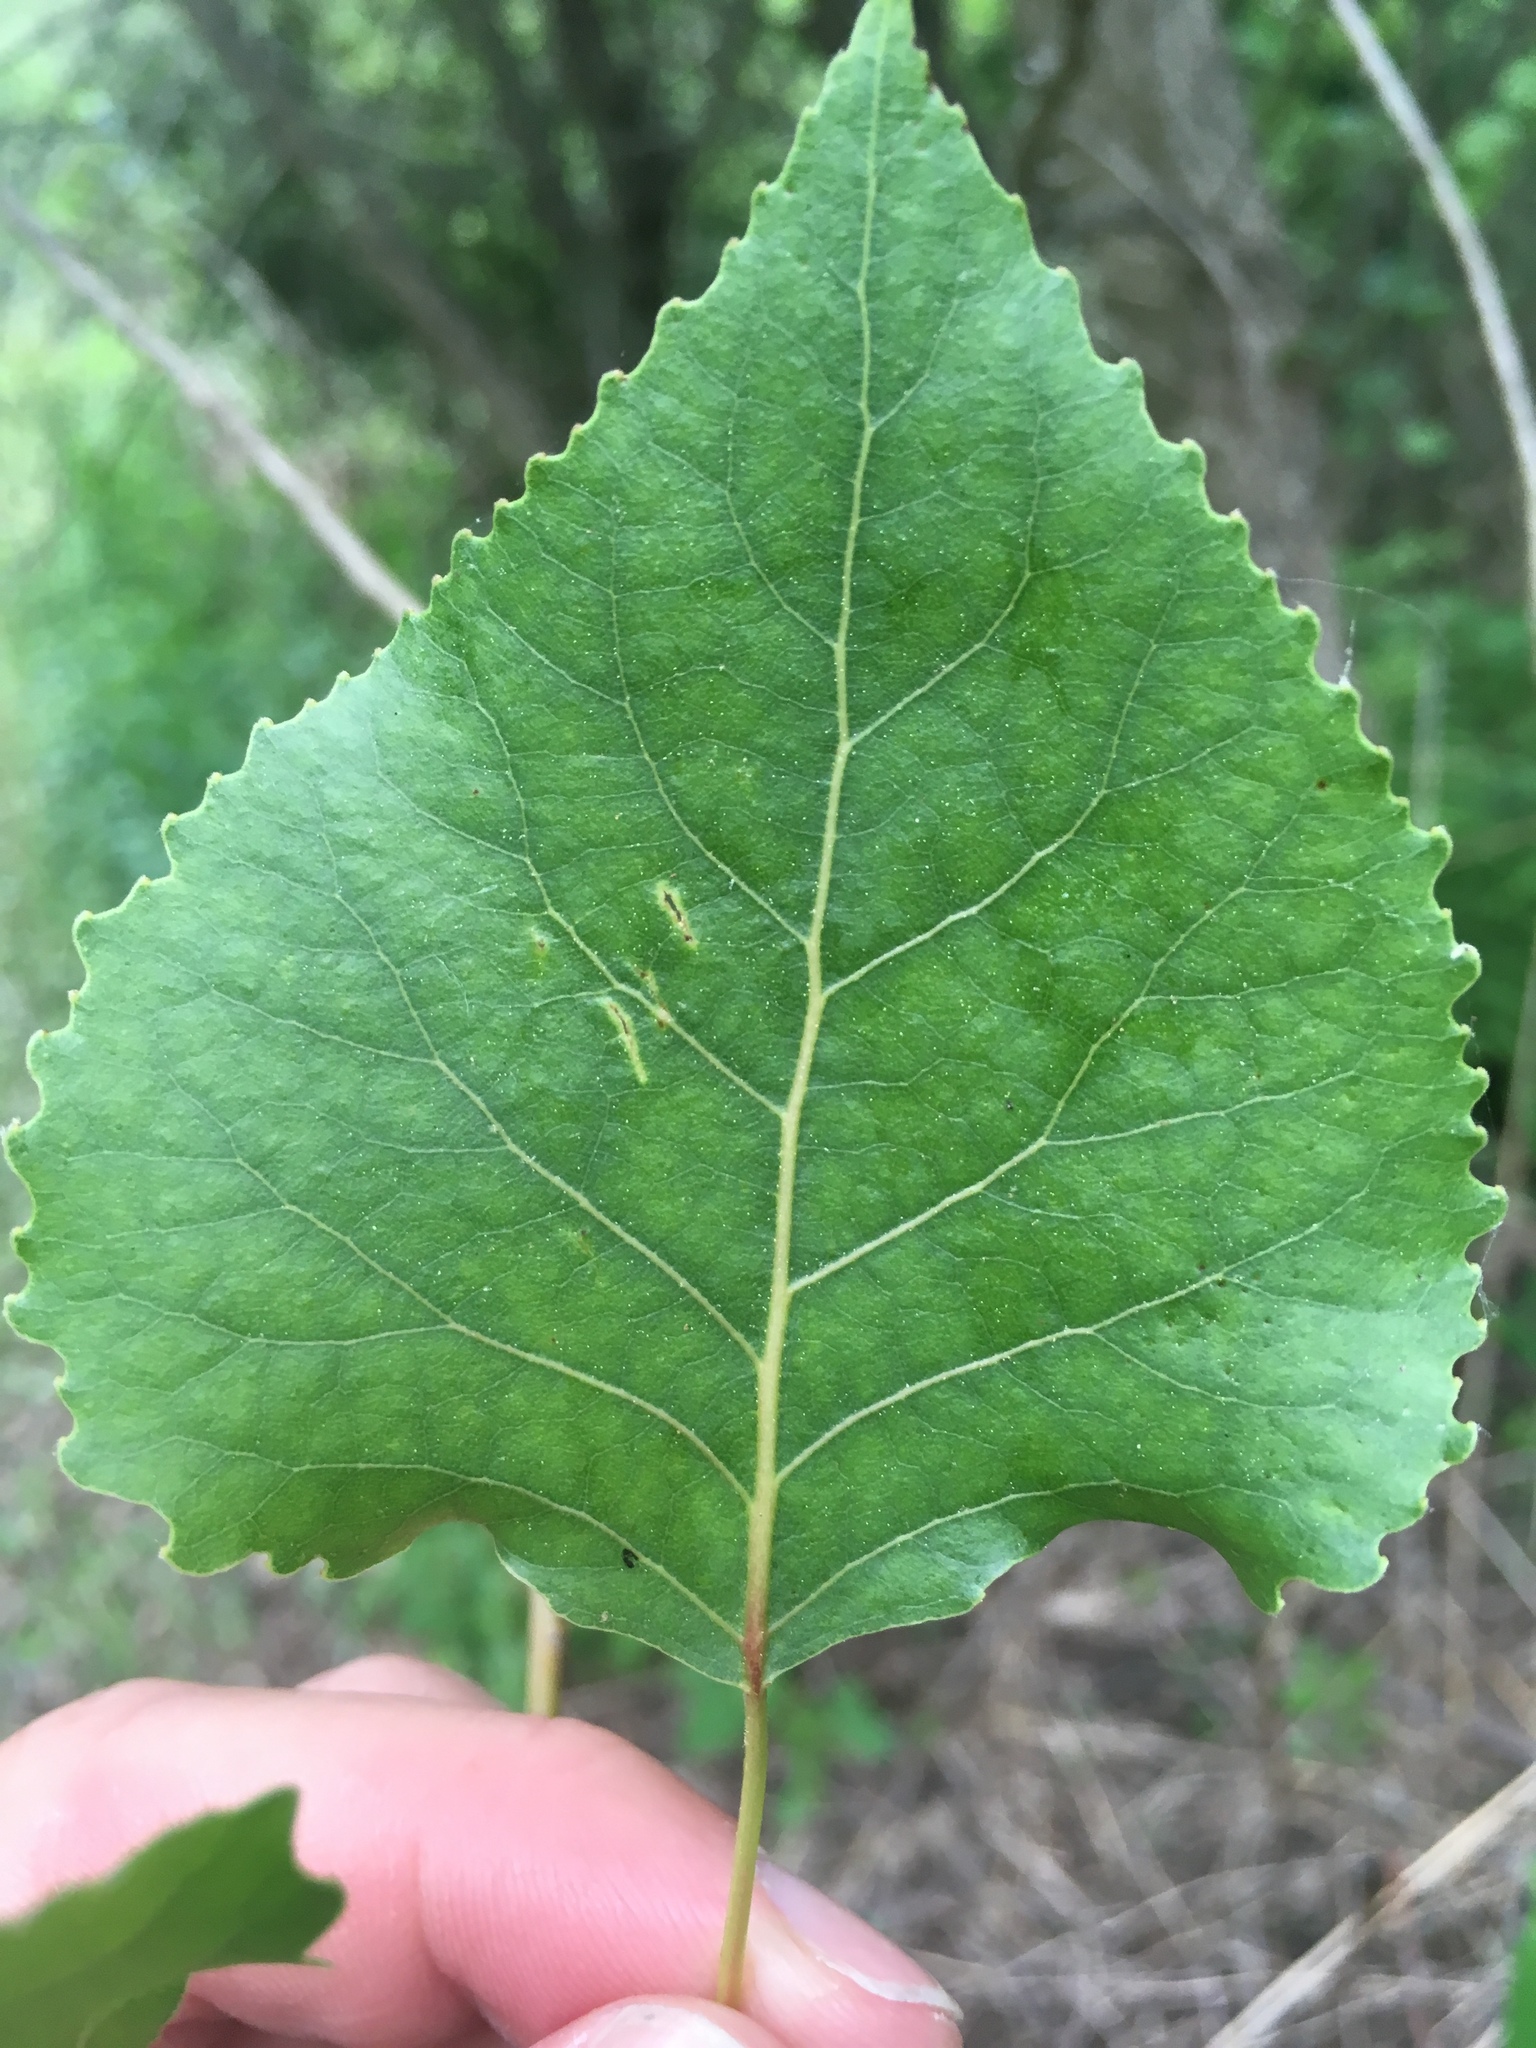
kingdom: Plantae
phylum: Tracheophyta
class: Magnoliopsida
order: Malpighiales
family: Salicaceae
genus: Populus
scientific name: Populus deltoides
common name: Eastern cottonwood
